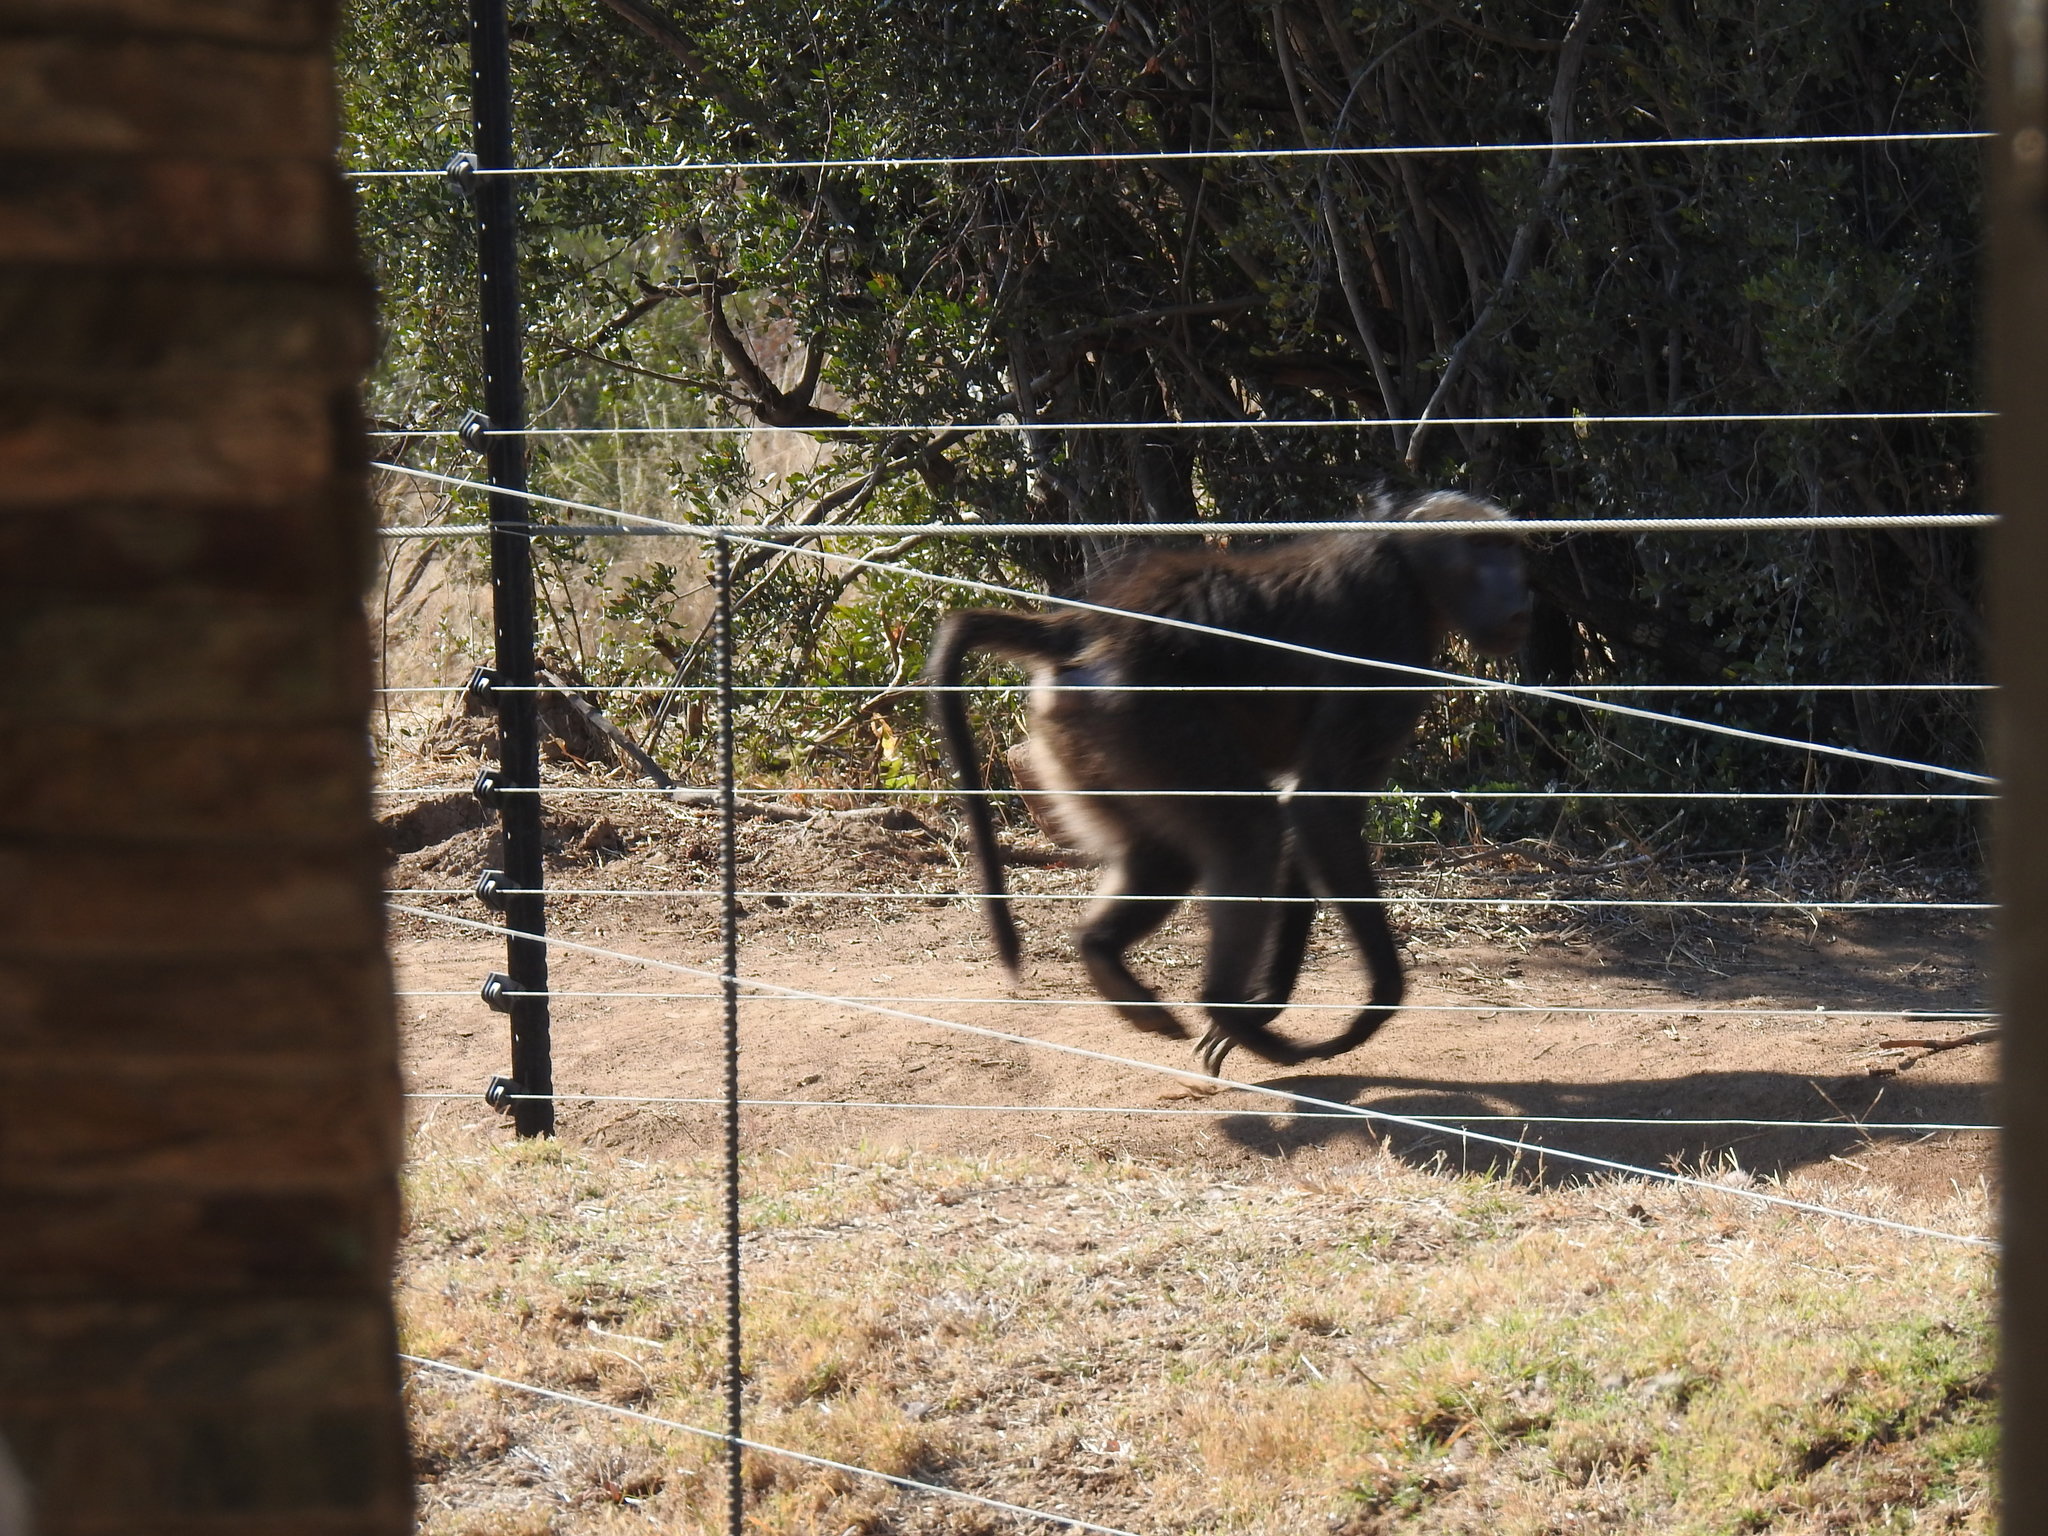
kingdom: Animalia
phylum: Chordata
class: Mammalia
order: Primates
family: Cercopithecidae
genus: Papio
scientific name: Papio ursinus
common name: Chacma baboon
